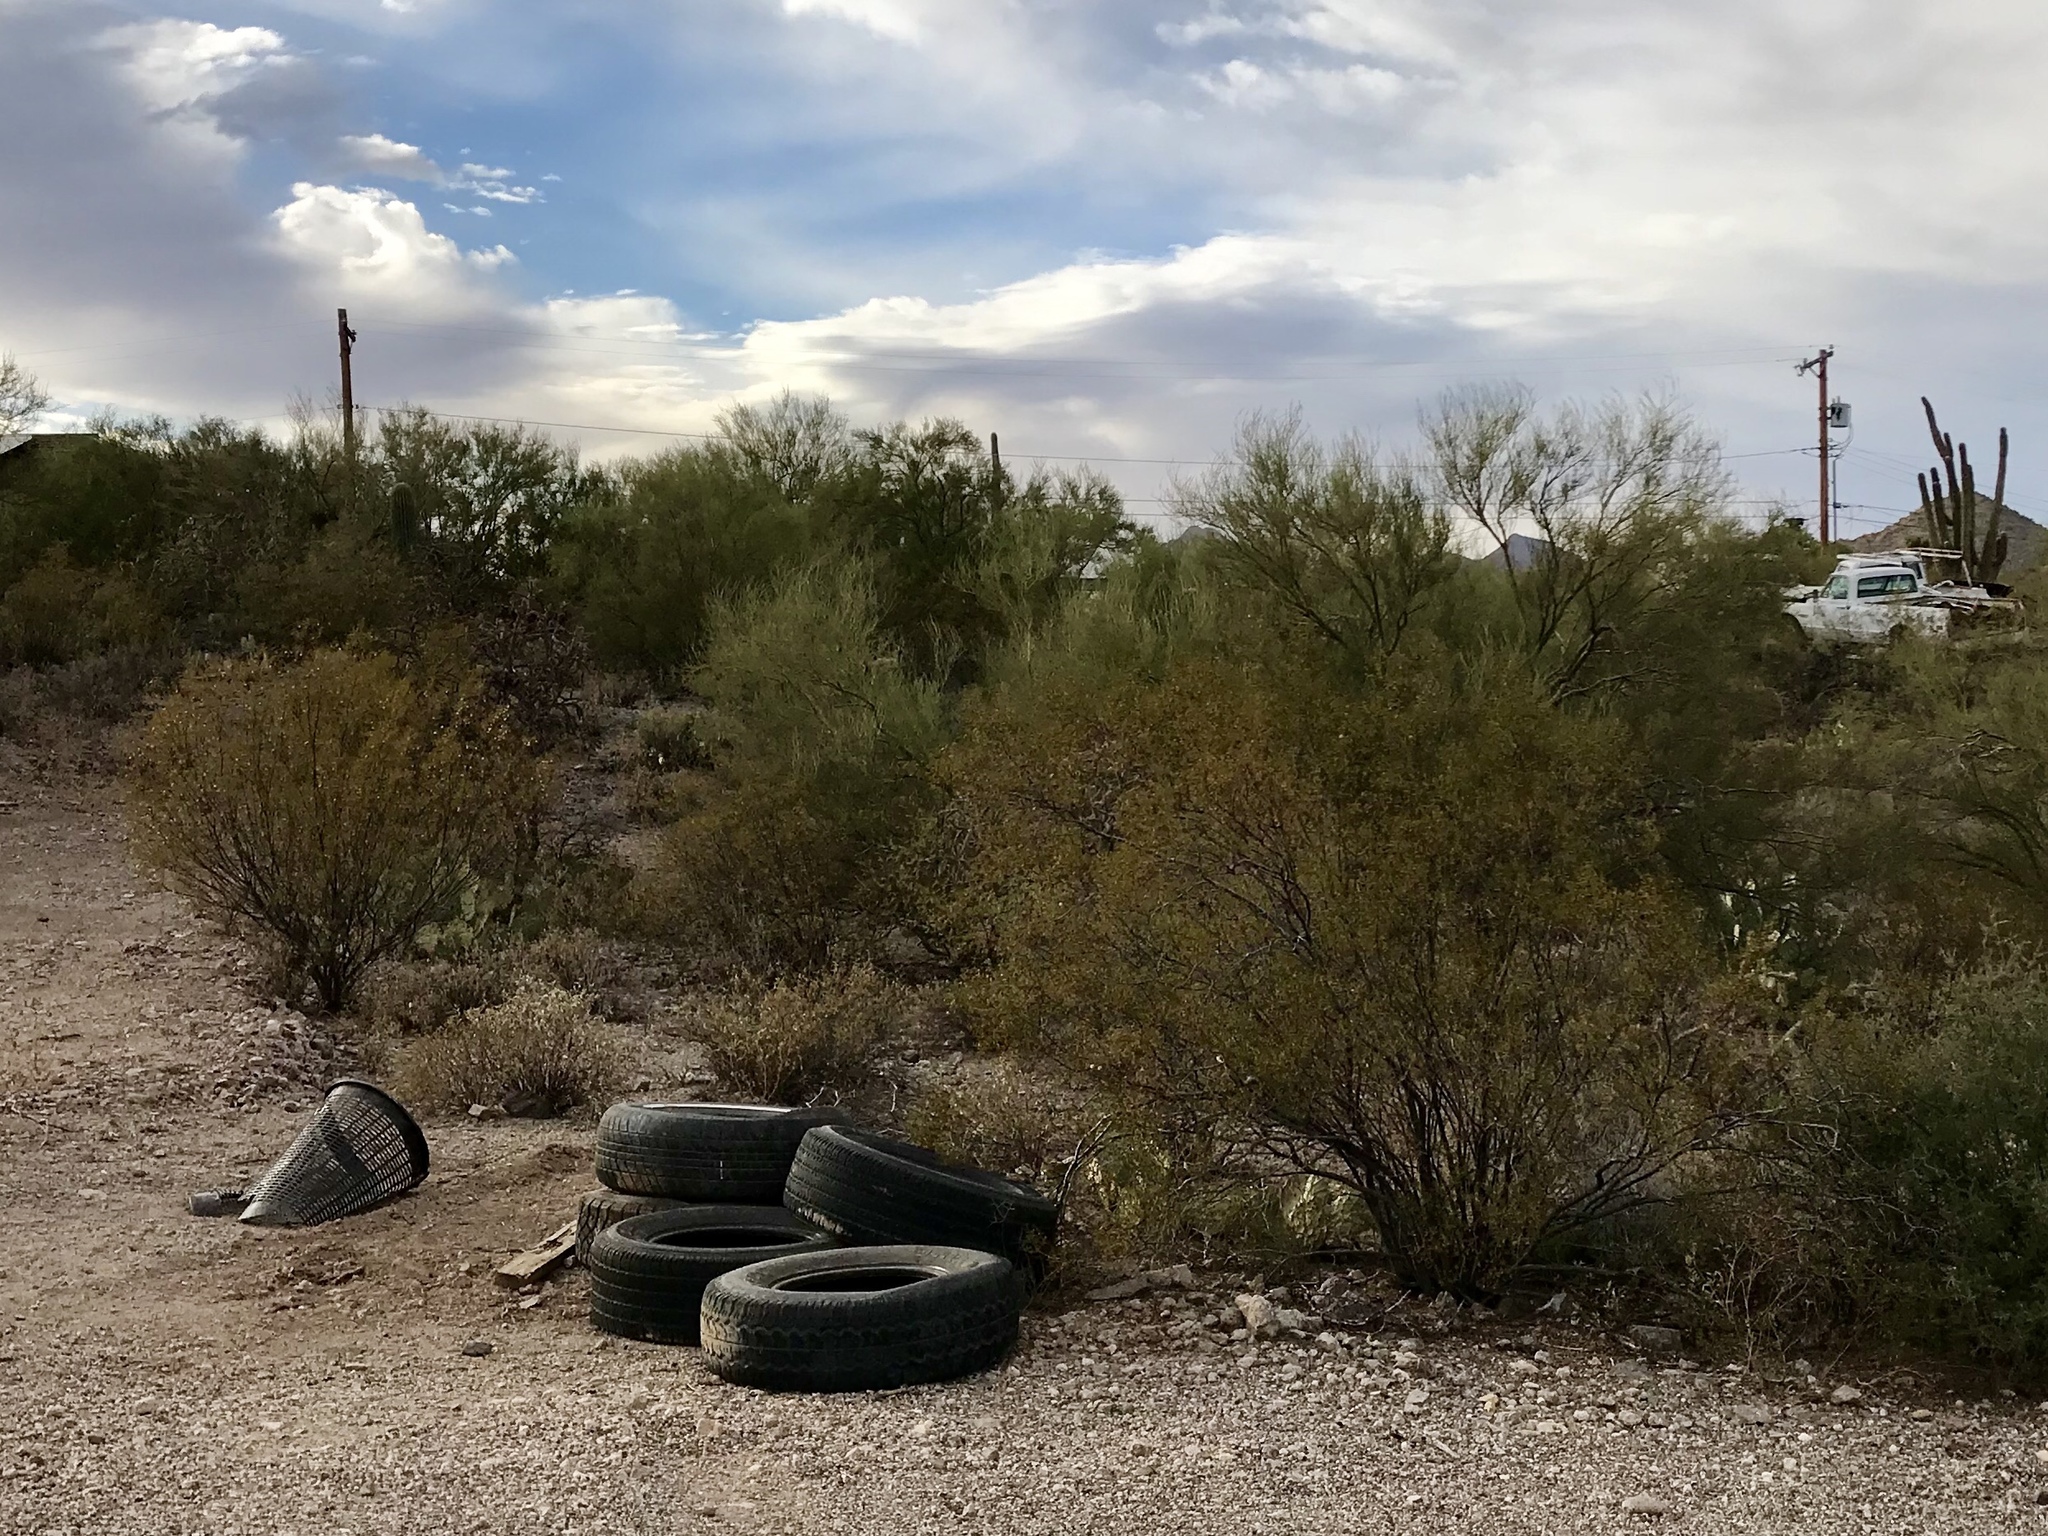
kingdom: Plantae
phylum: Tracheophyta
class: Magnoliopsida
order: Zygophyllales
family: Zygophyllaceae
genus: Larrea
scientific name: Larrea tridentata
